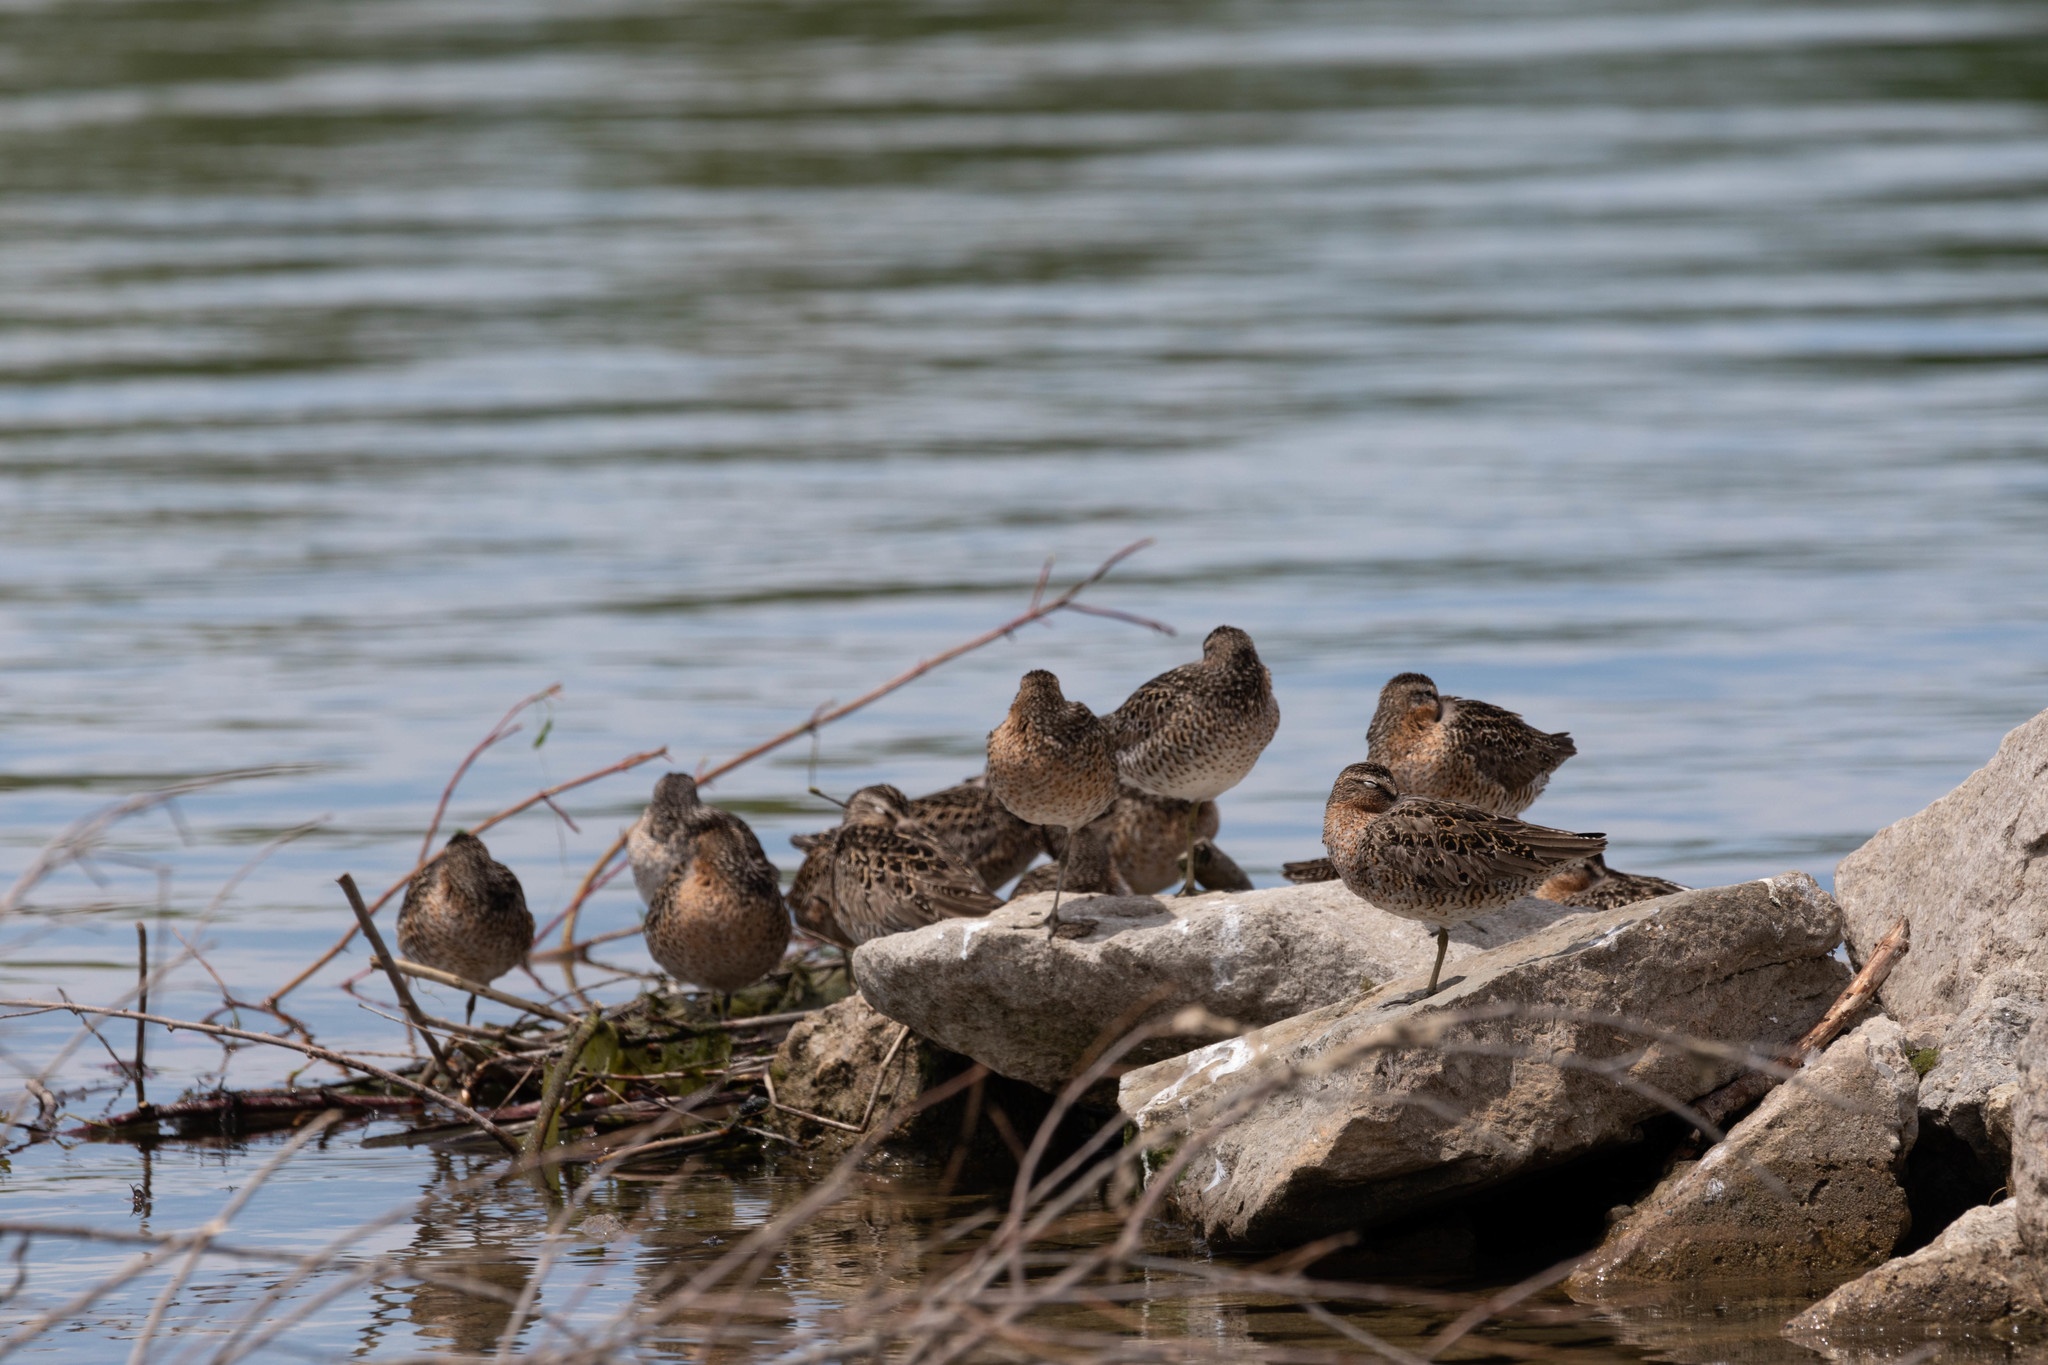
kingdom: Animalia
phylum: Chordata
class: Aves
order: Charadriiformes
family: Scolopacidae
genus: Limnodromus
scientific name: Limnodromus griseus
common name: Short-billed dowitcher
